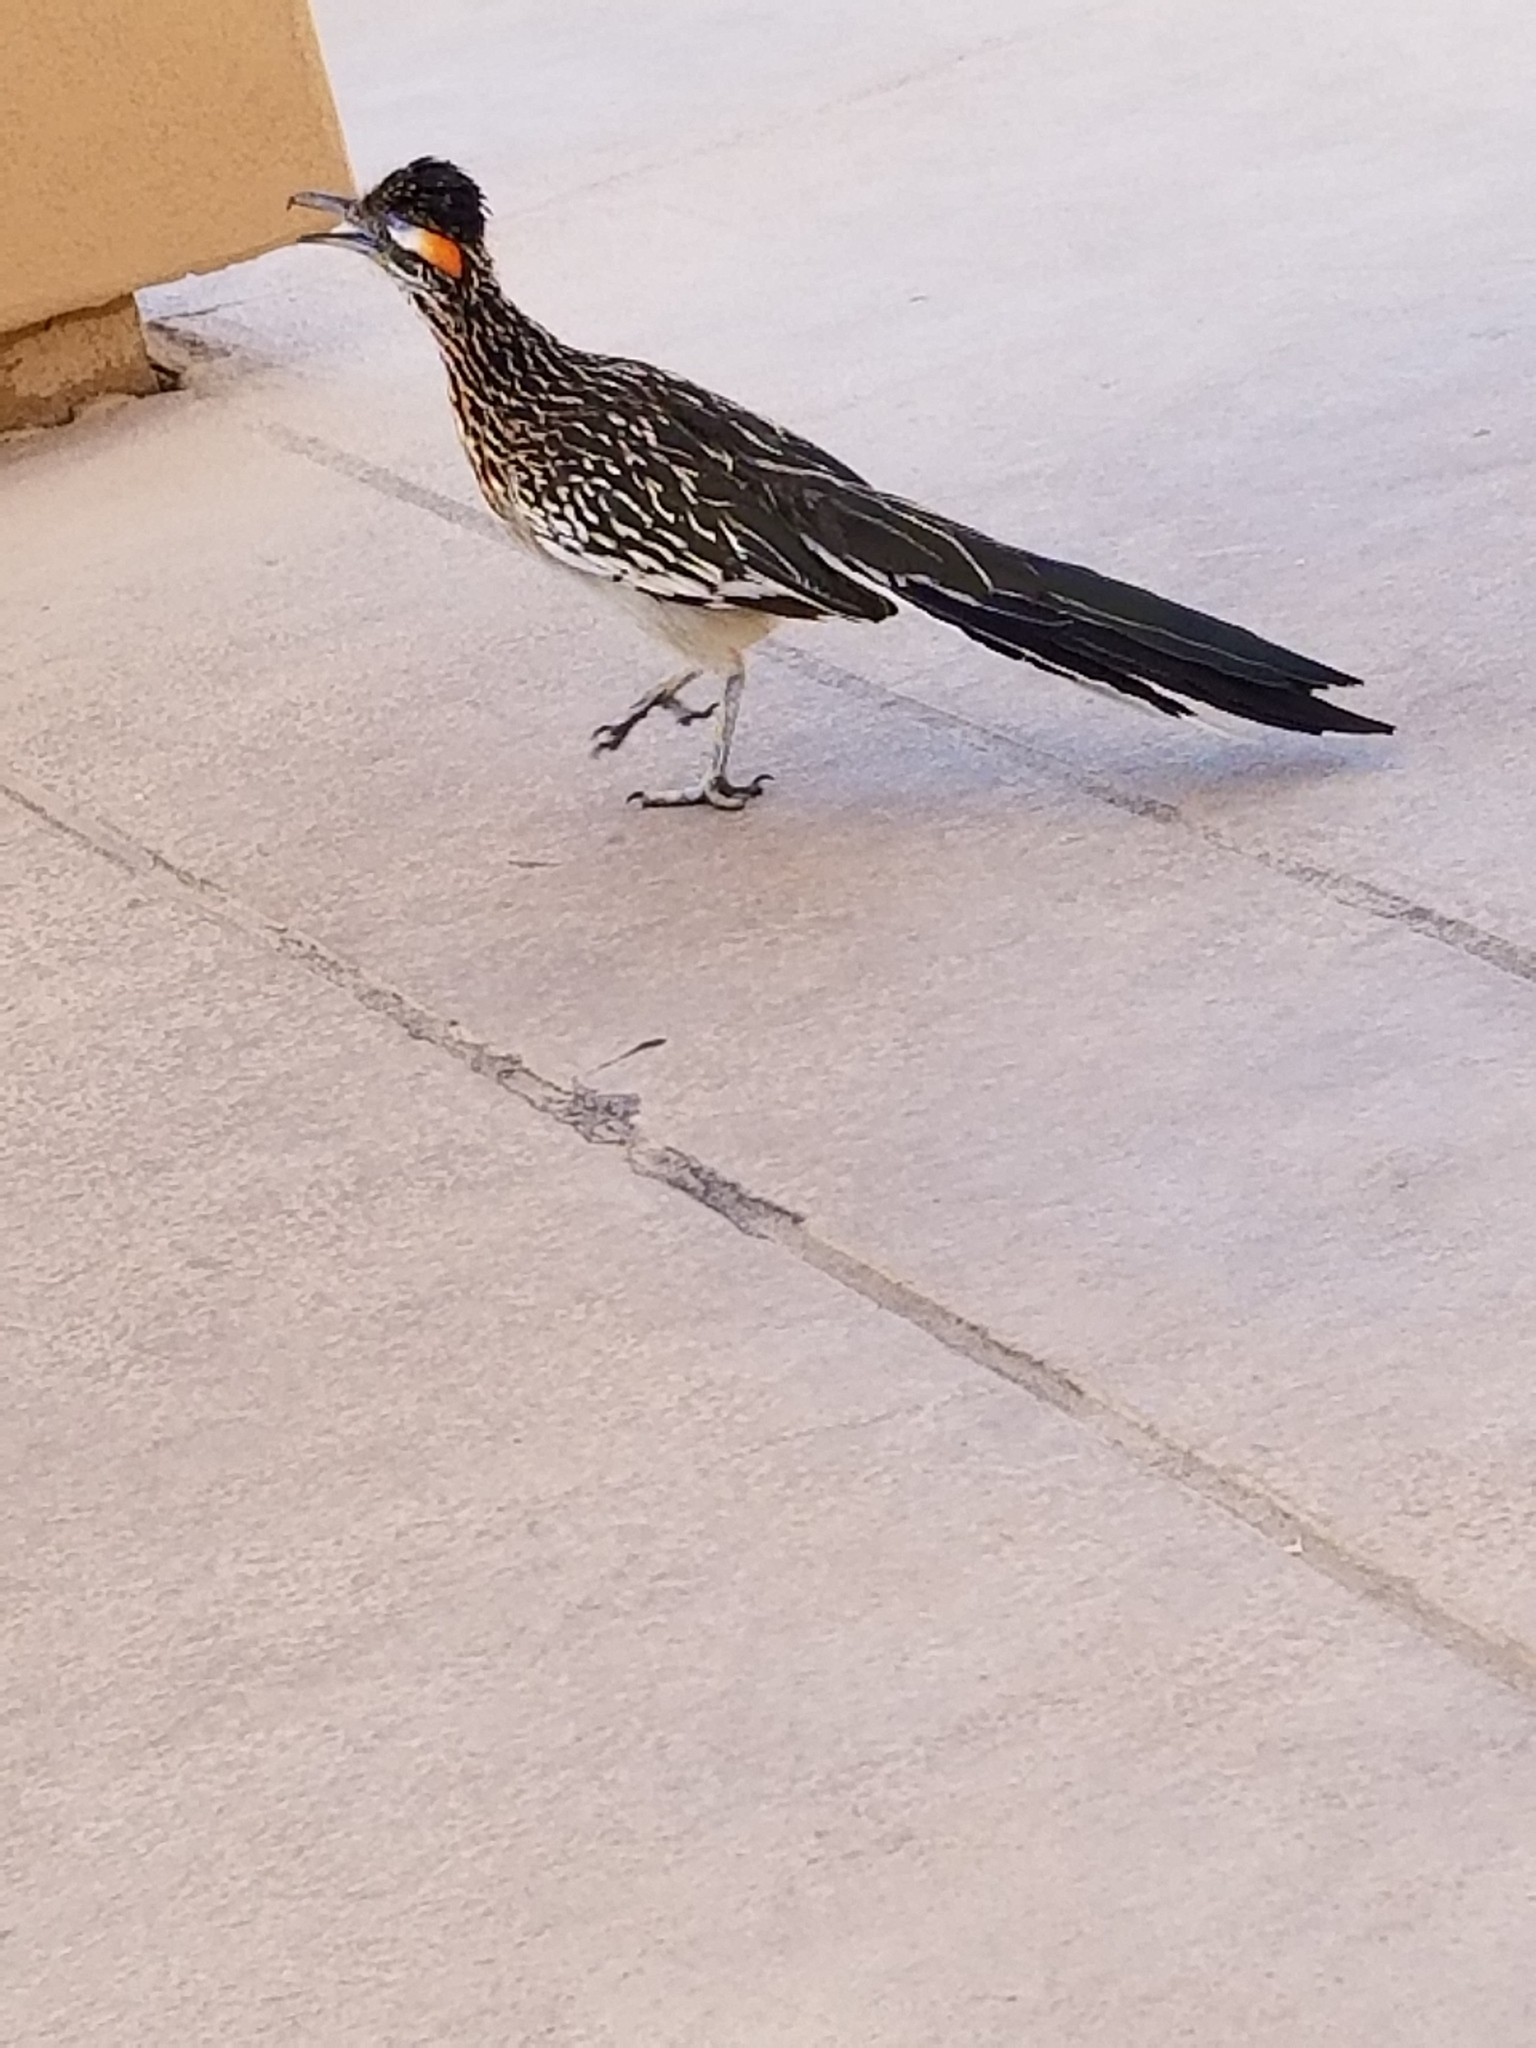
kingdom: Animalia
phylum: Chordata
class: Aves
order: Cuculiformes
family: Cuculidae
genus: Geococcyx
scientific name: Geococcyx californianus
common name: Greater roadrunner
